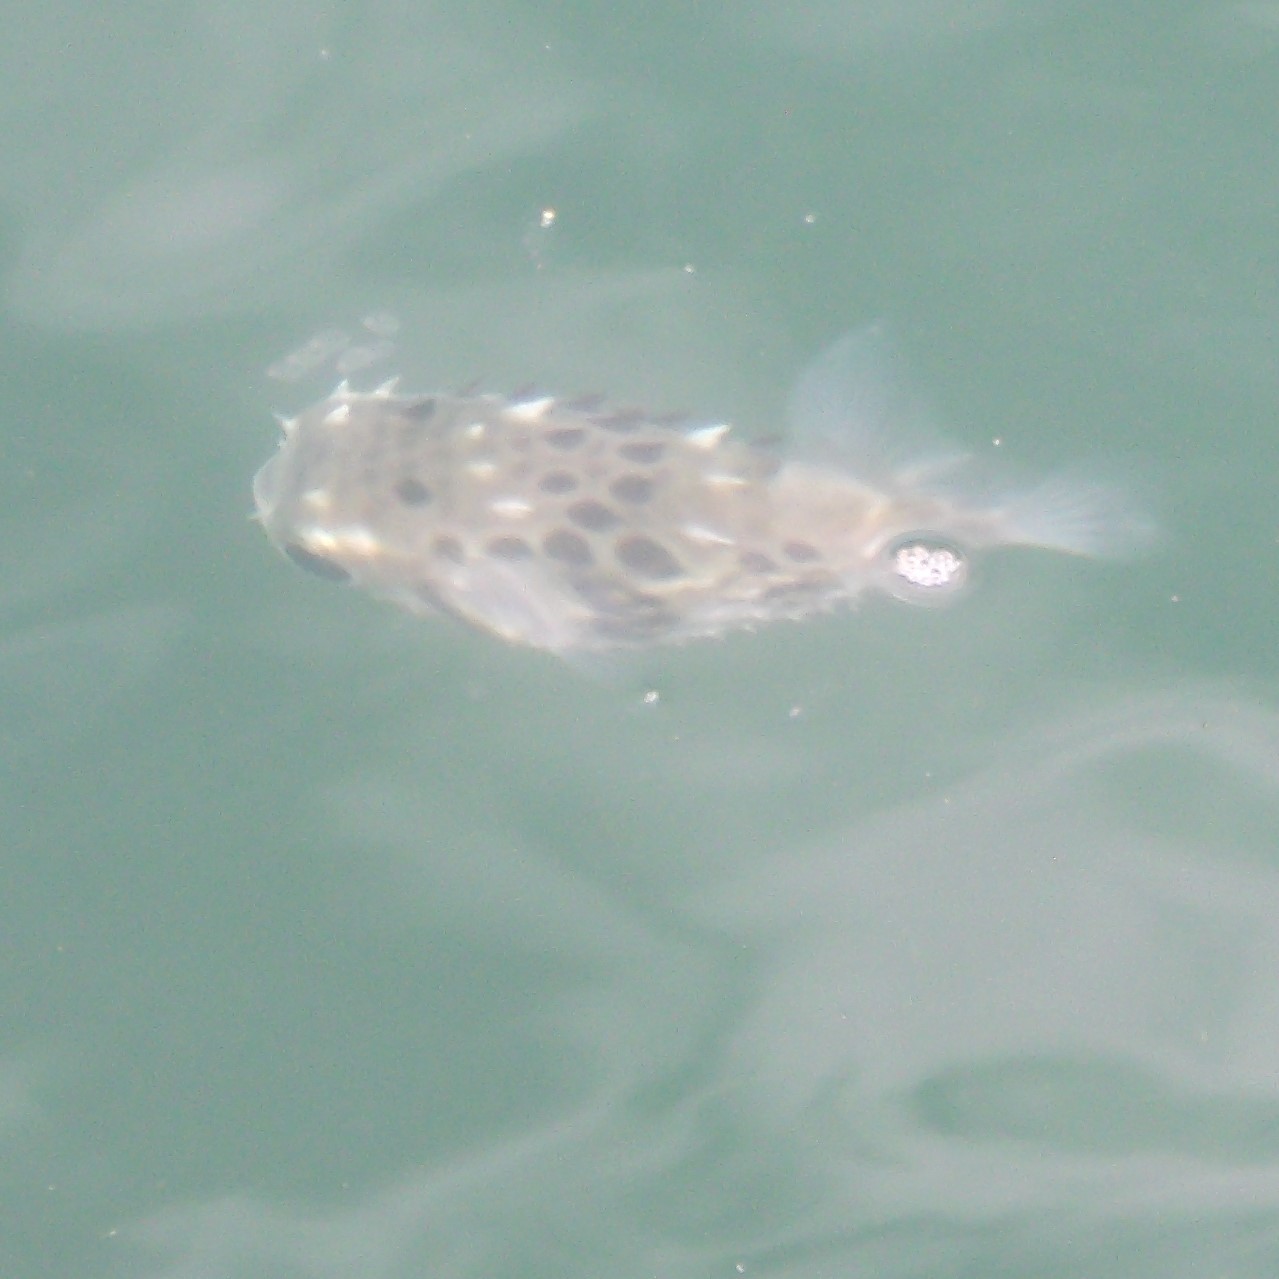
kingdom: Animalia
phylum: Chordata
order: Tetraodontiformes
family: Diodontidae
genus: Allomycterus
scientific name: Allomycterus pilatus
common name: No common name
